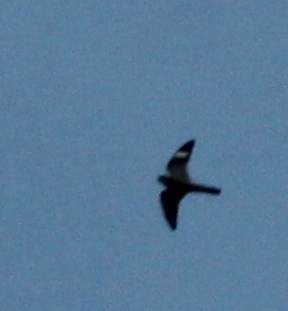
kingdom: Animalia
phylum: Chordata
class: Aves
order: Caprimulgiformes
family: Caprimulgidae
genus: Chordeiles
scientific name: Chordeiles minor
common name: Common nighthawk
